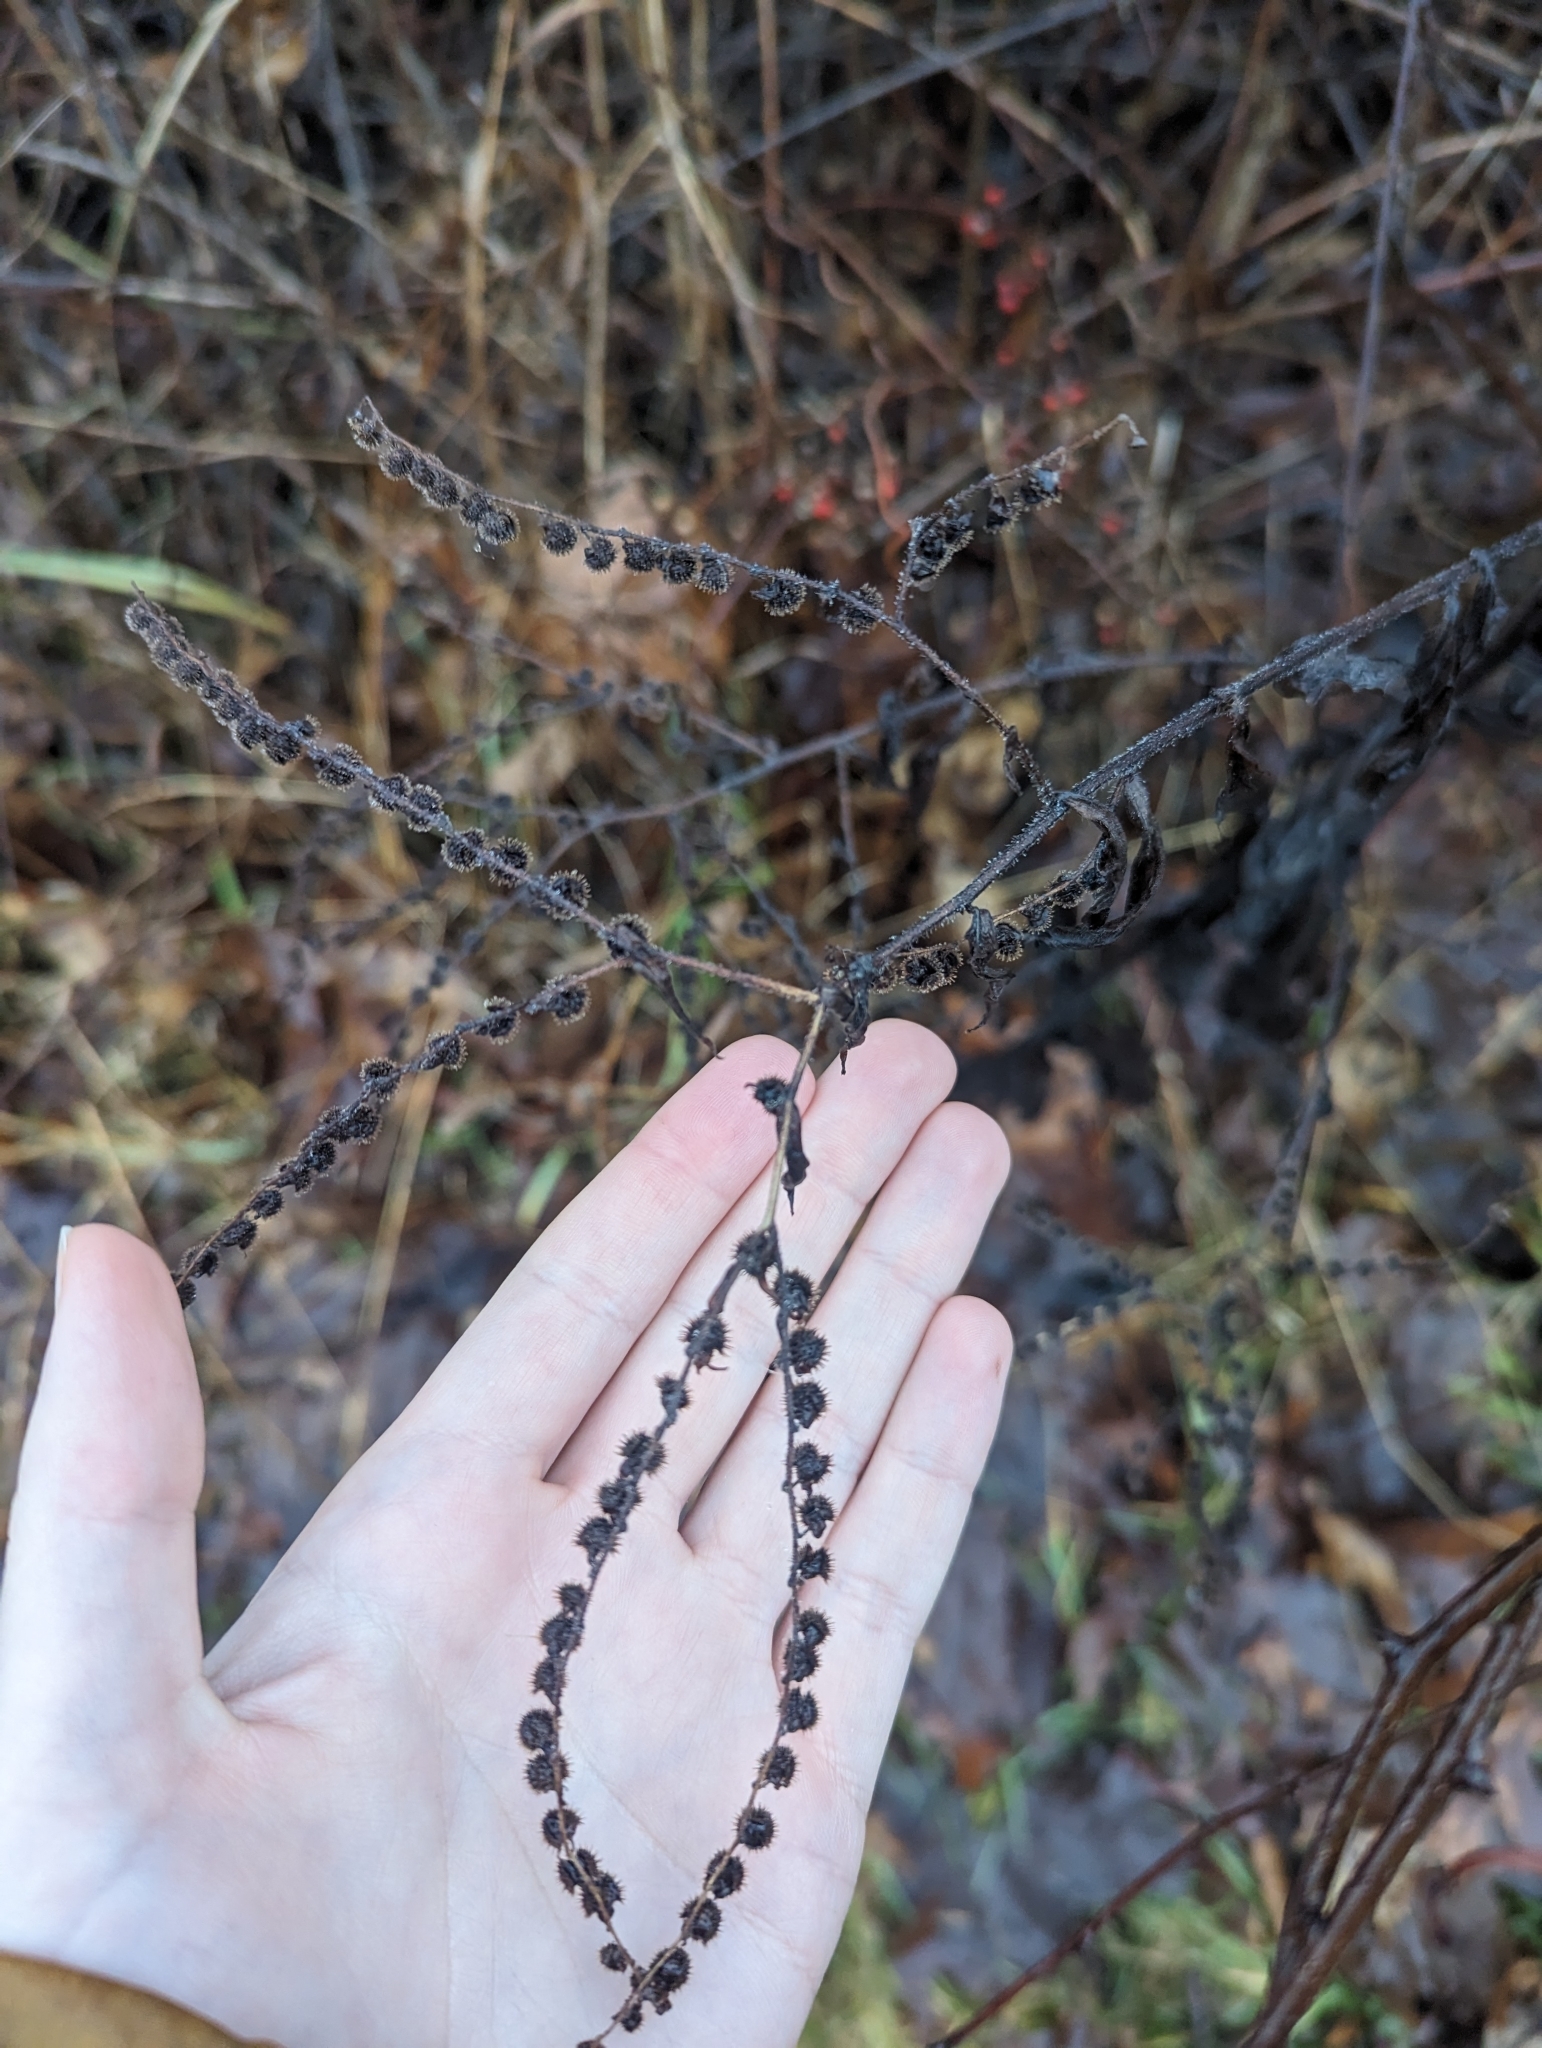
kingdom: Plantae
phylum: Tracheophyta
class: Magnoliopsida
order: Boraginales
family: Boraginaceae
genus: Hackelia
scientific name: Hackelia virginiana
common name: Beggar's-lice
